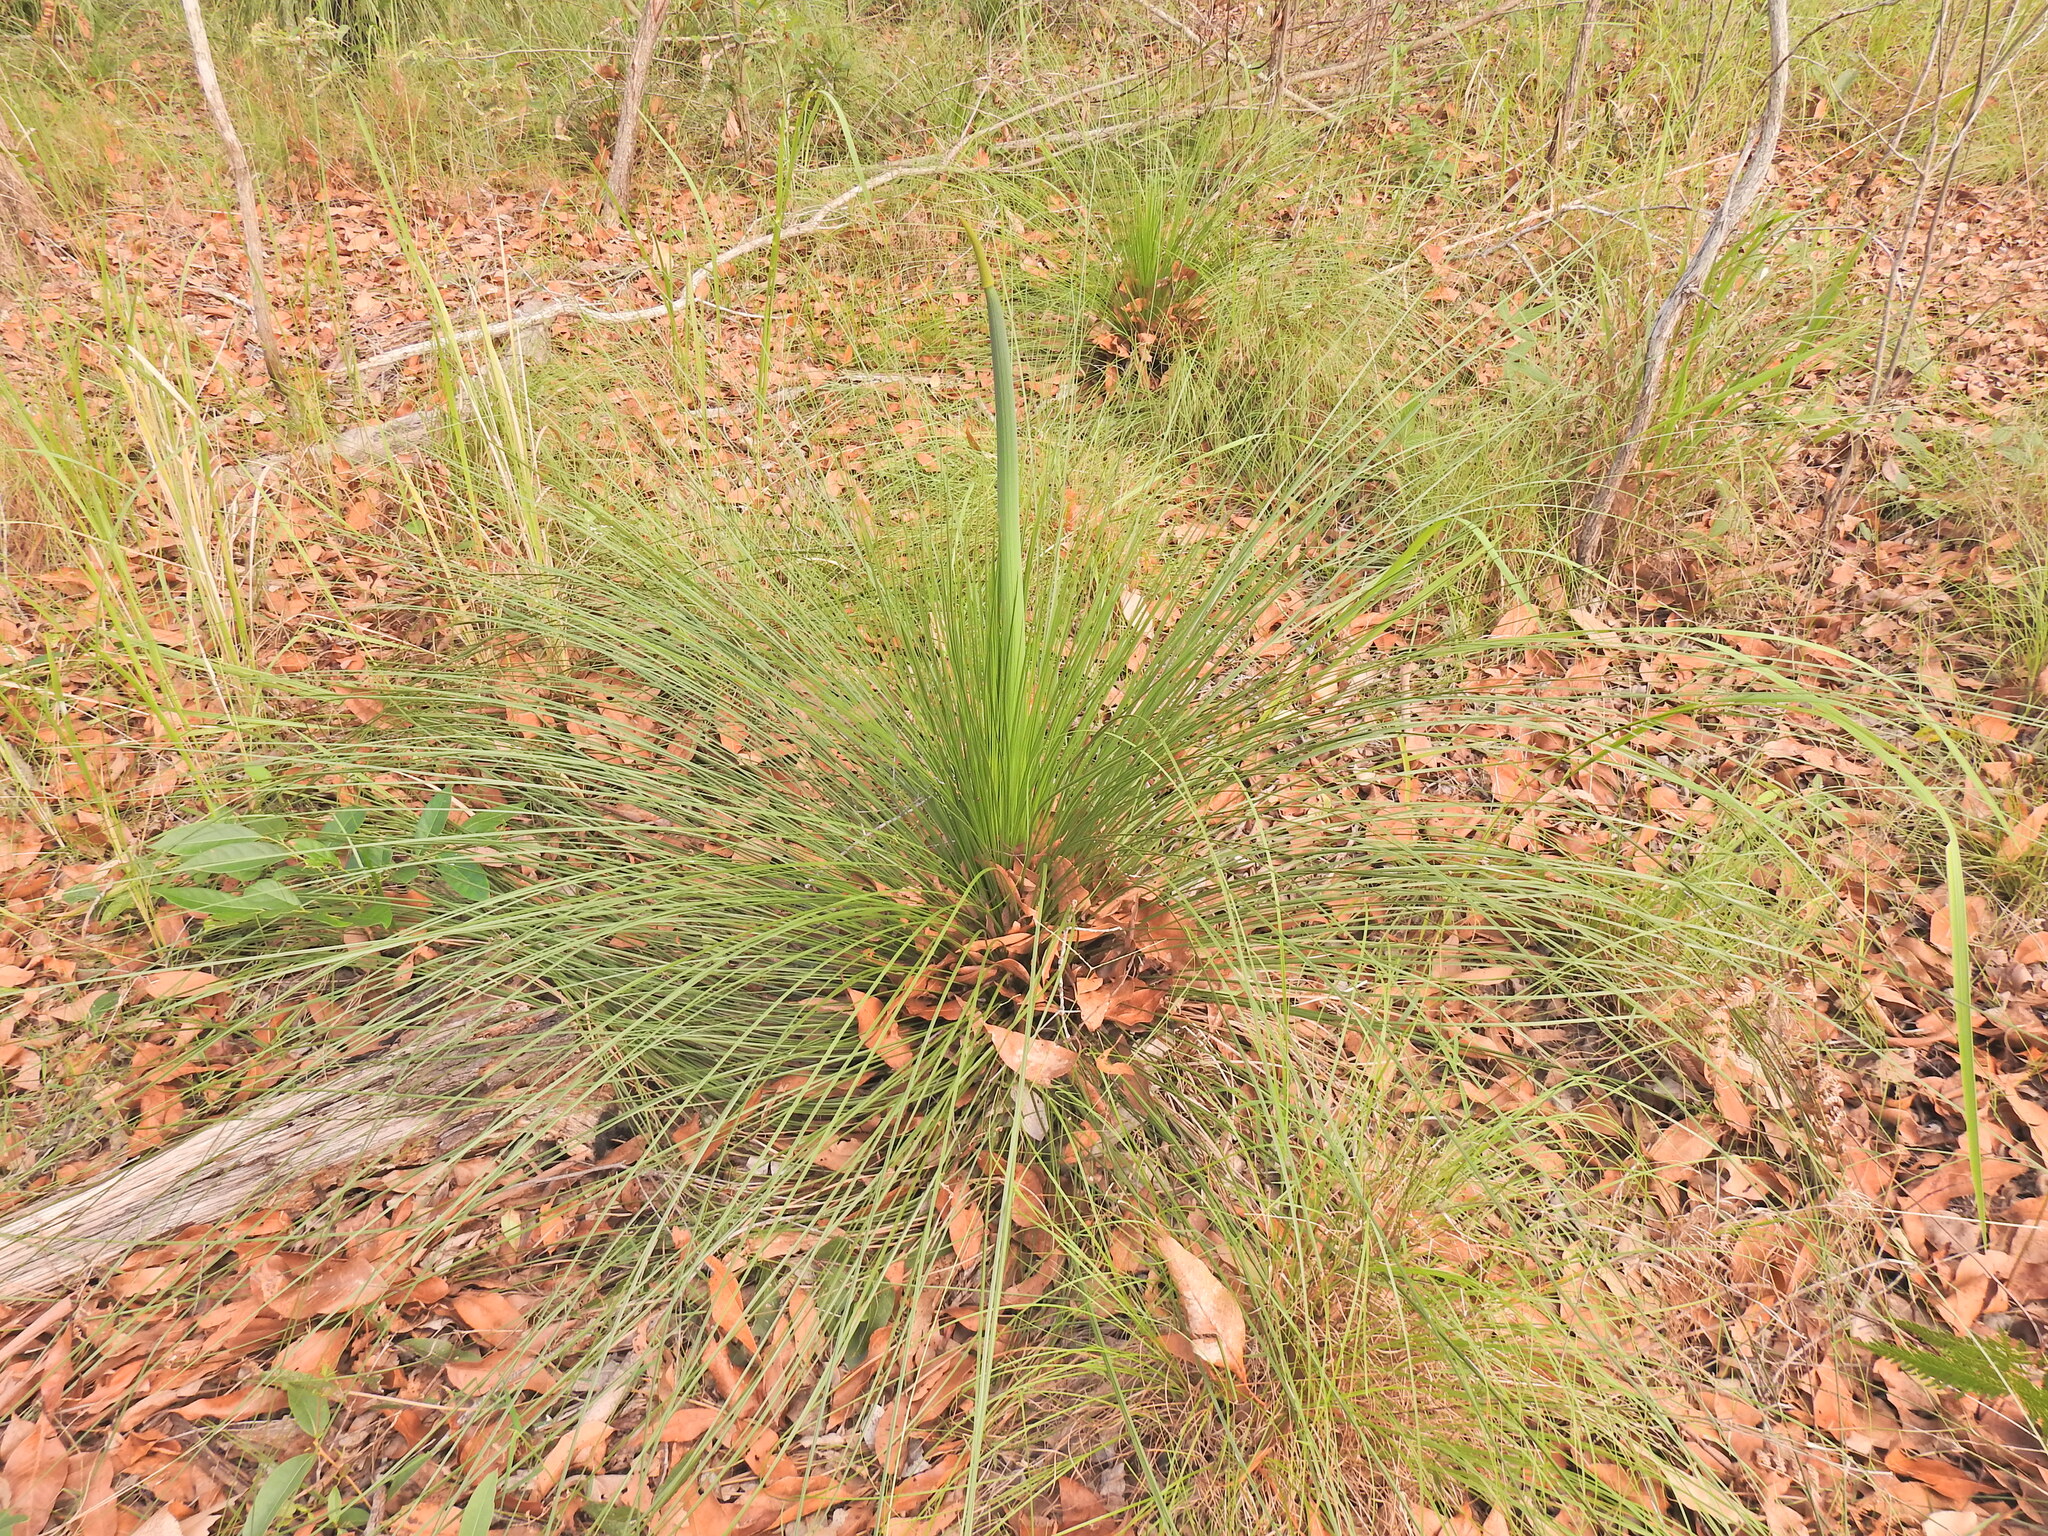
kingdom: Plantae
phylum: Tracheophyta
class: Liliopsida
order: Asparagales
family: Asphodelaceae
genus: Xanthorrhoea
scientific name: Xanthorrhoea latifolia
